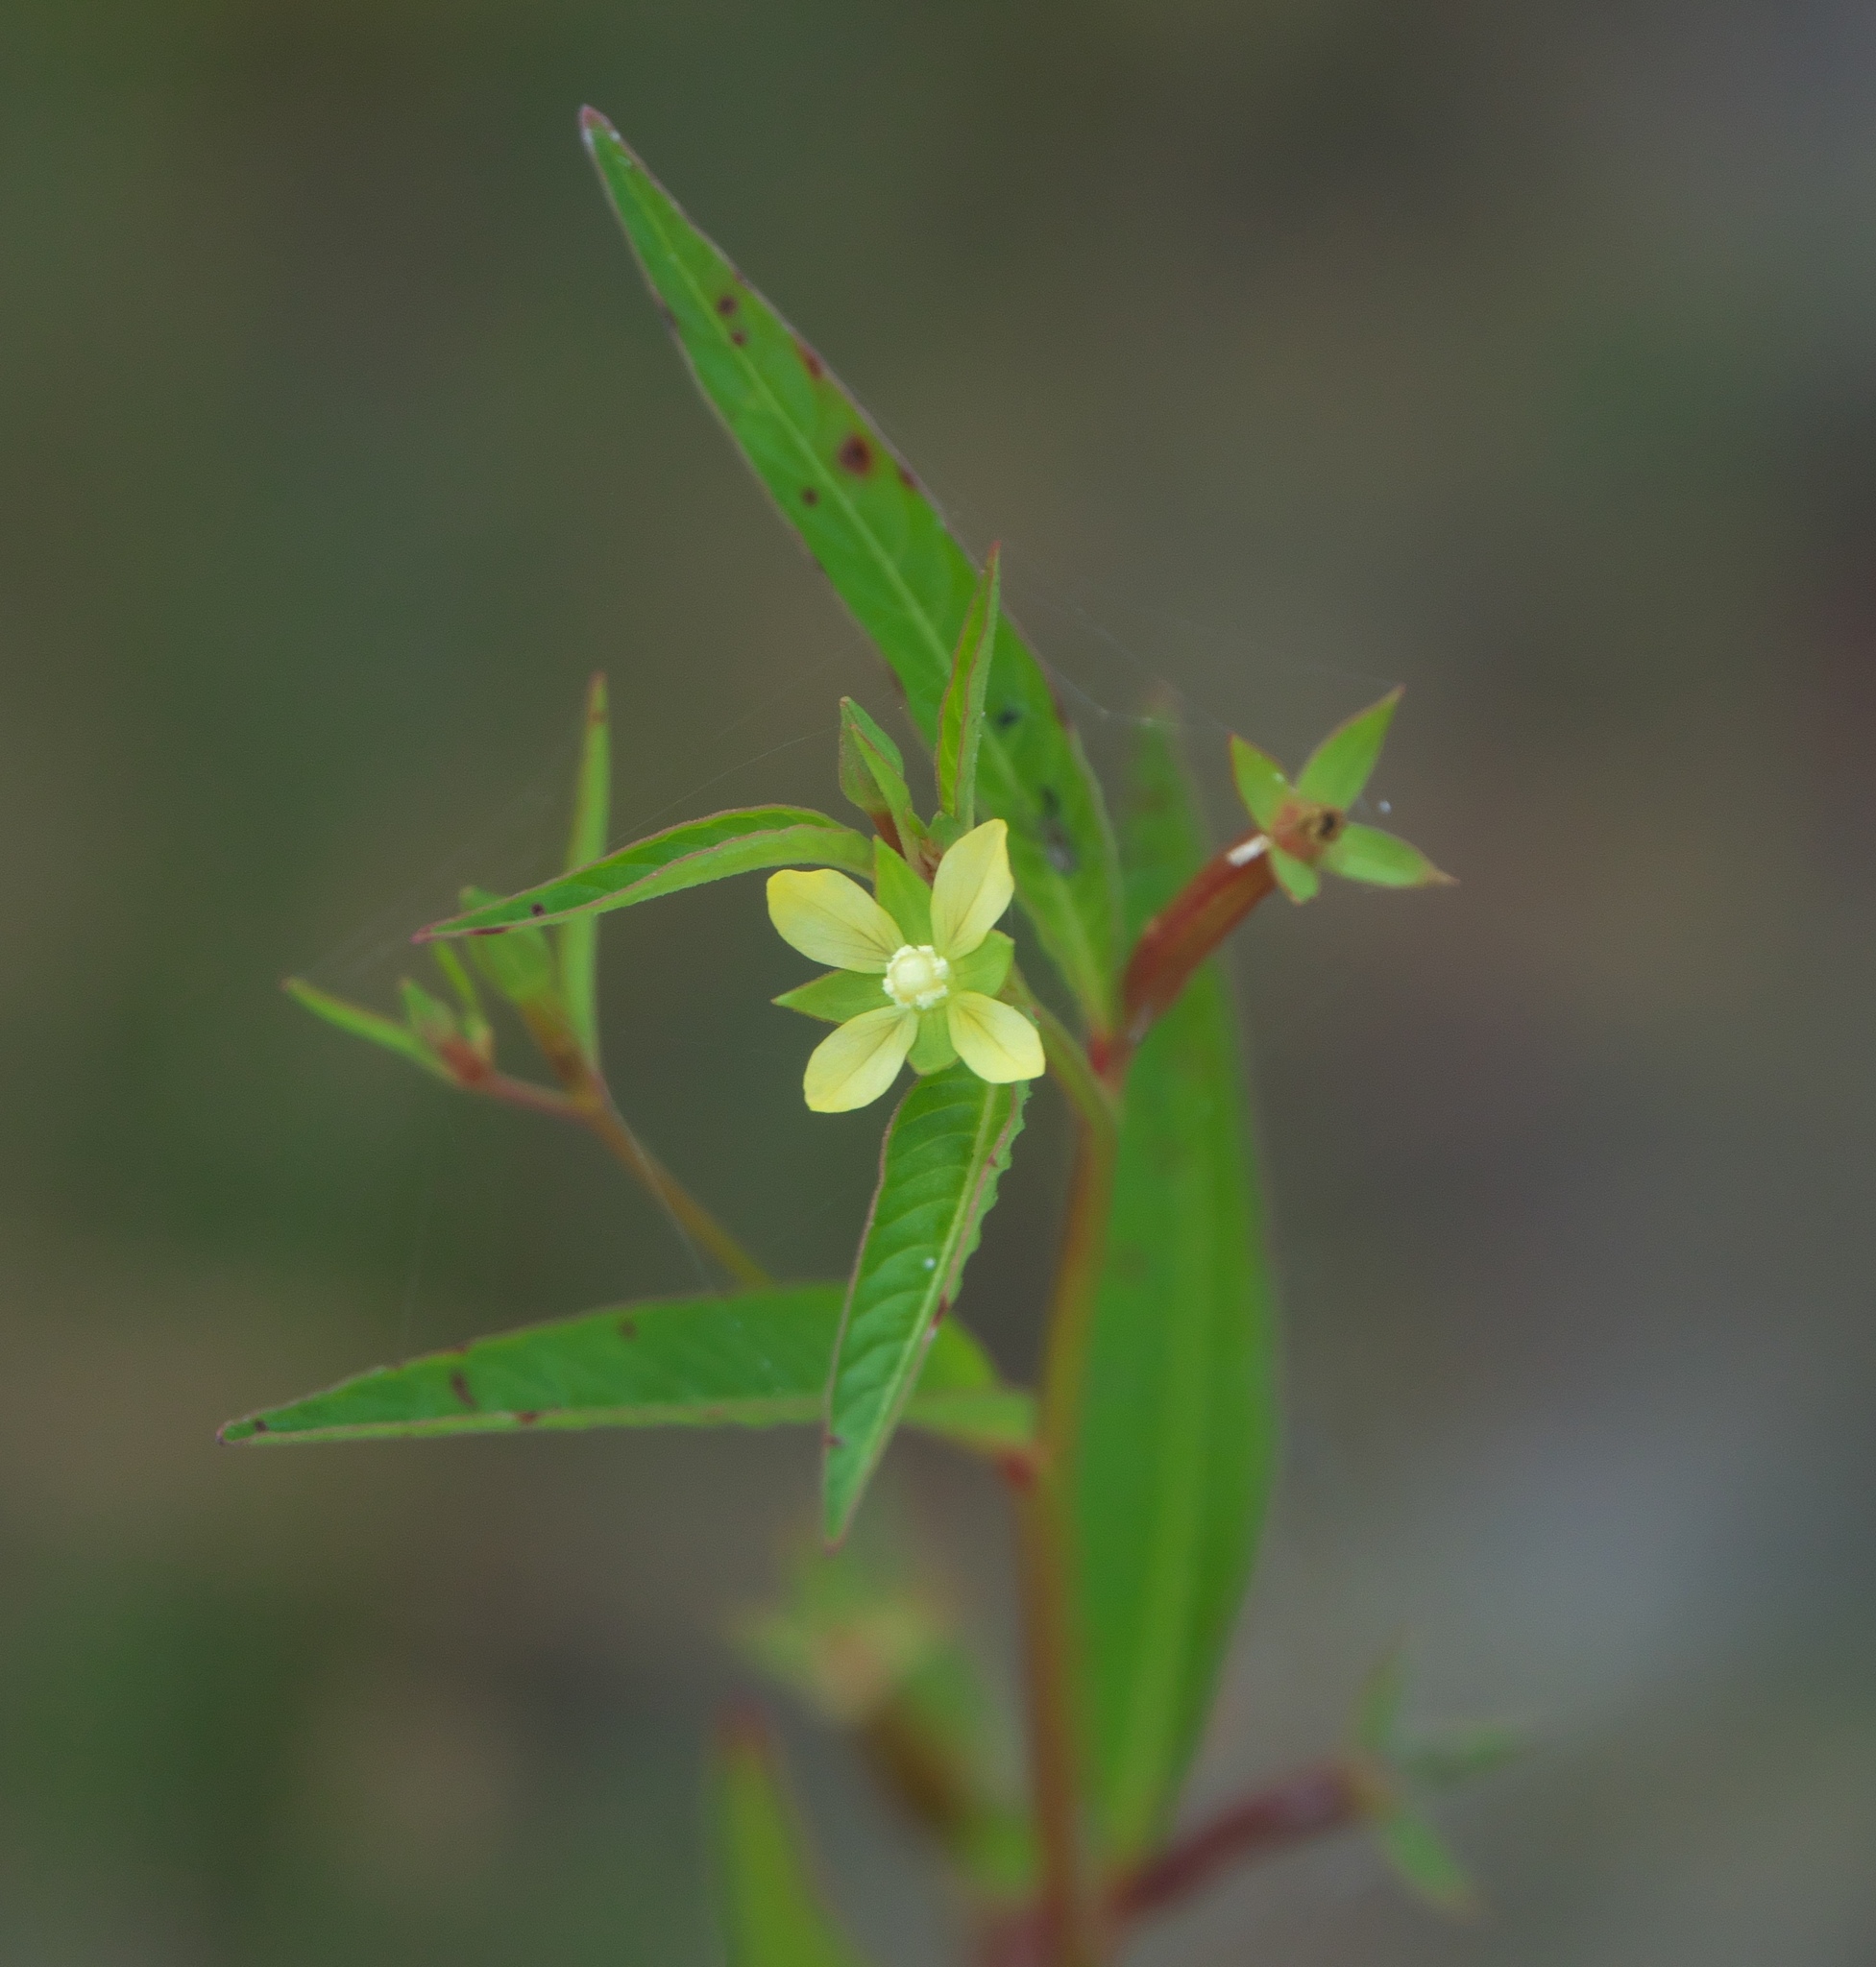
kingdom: Plantae
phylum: Tracheophyta
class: Magnoliopsida
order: Myrtales
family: Onagraceae
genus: Ludwigia
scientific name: Ludwigia erecta
